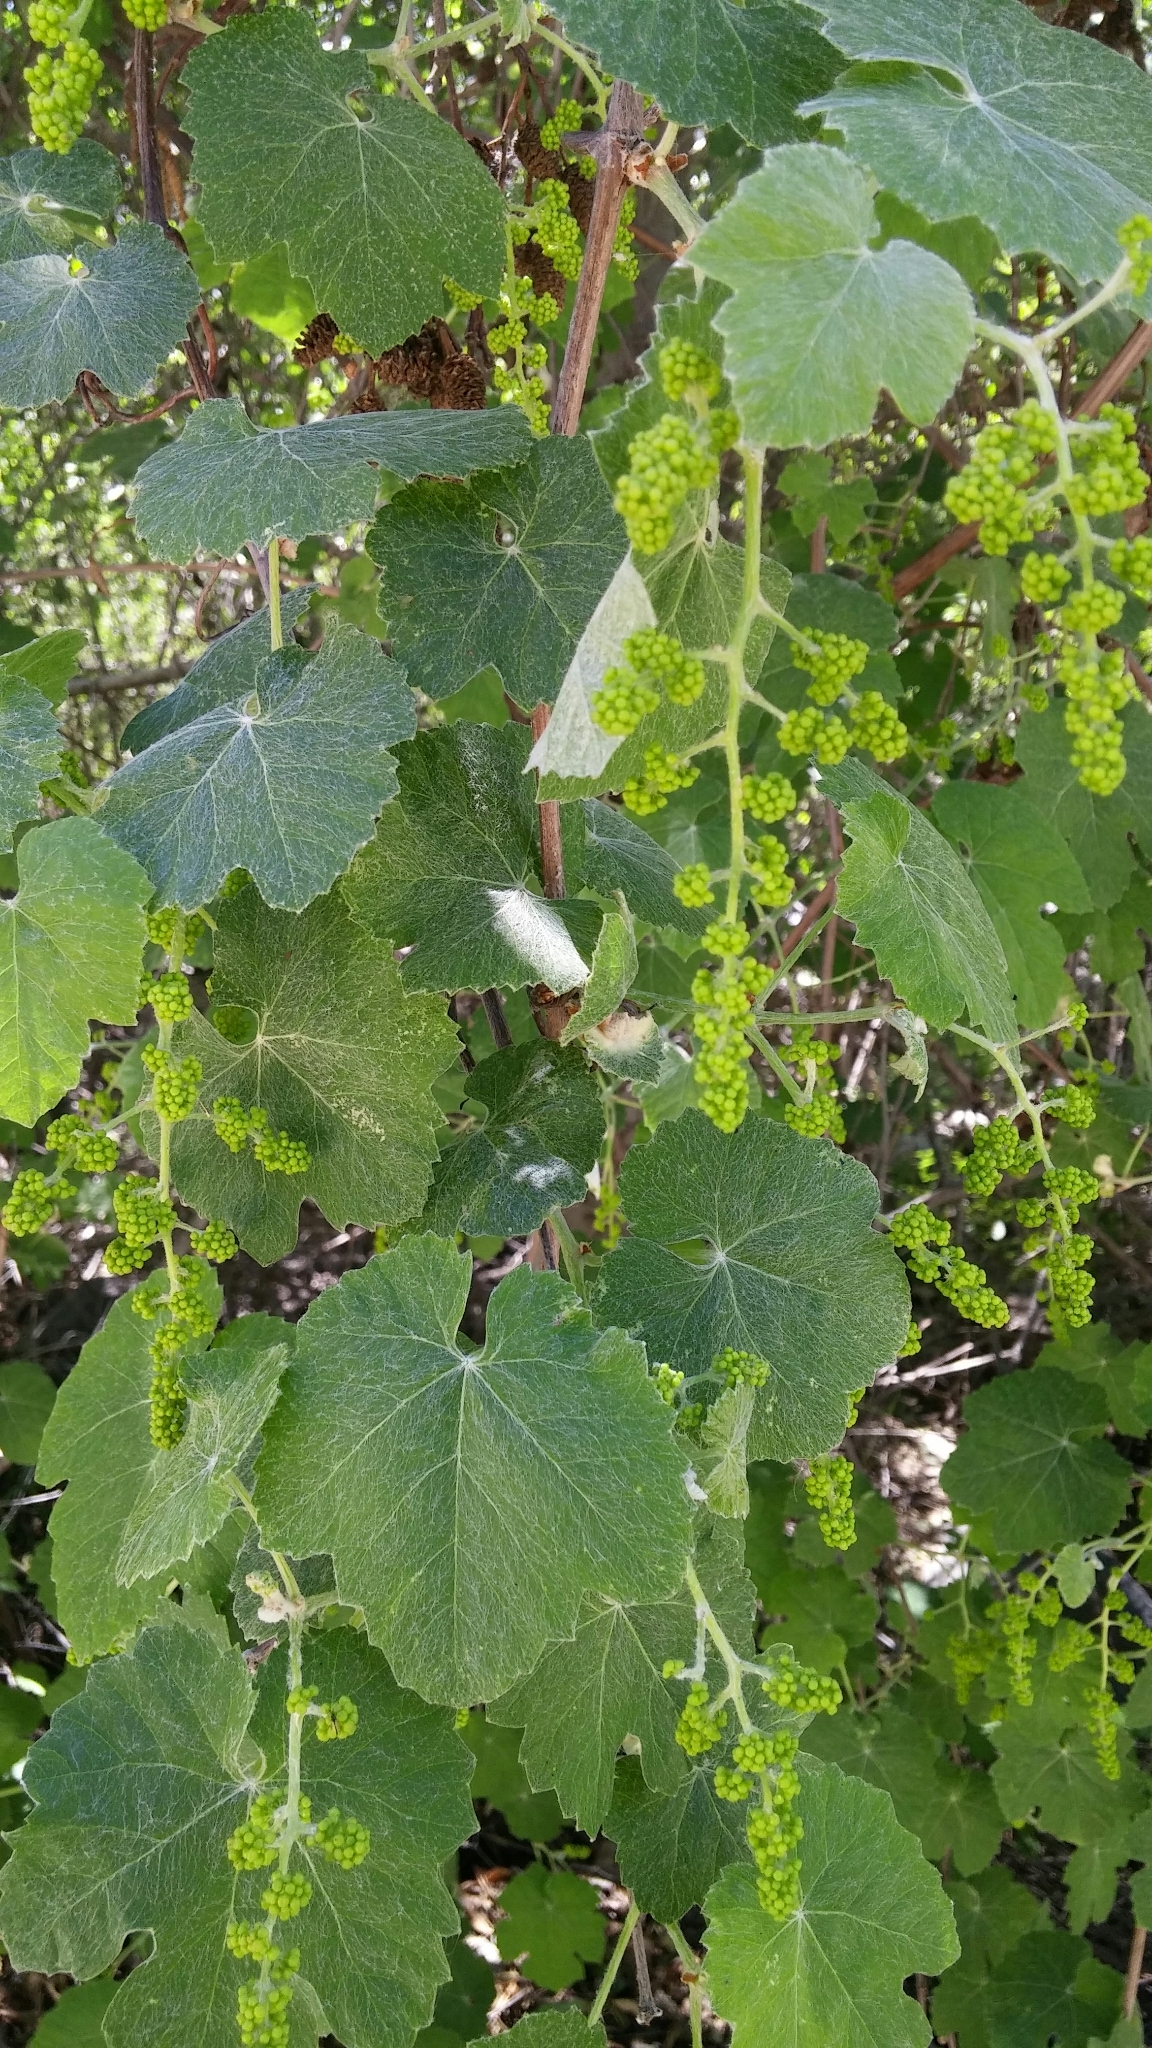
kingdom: Plantae
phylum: Tracheophyta
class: Magnoliopsida
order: Vitales
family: Vitaceae
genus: Vitis
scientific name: Vitis girdiana
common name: Desert wild grape
